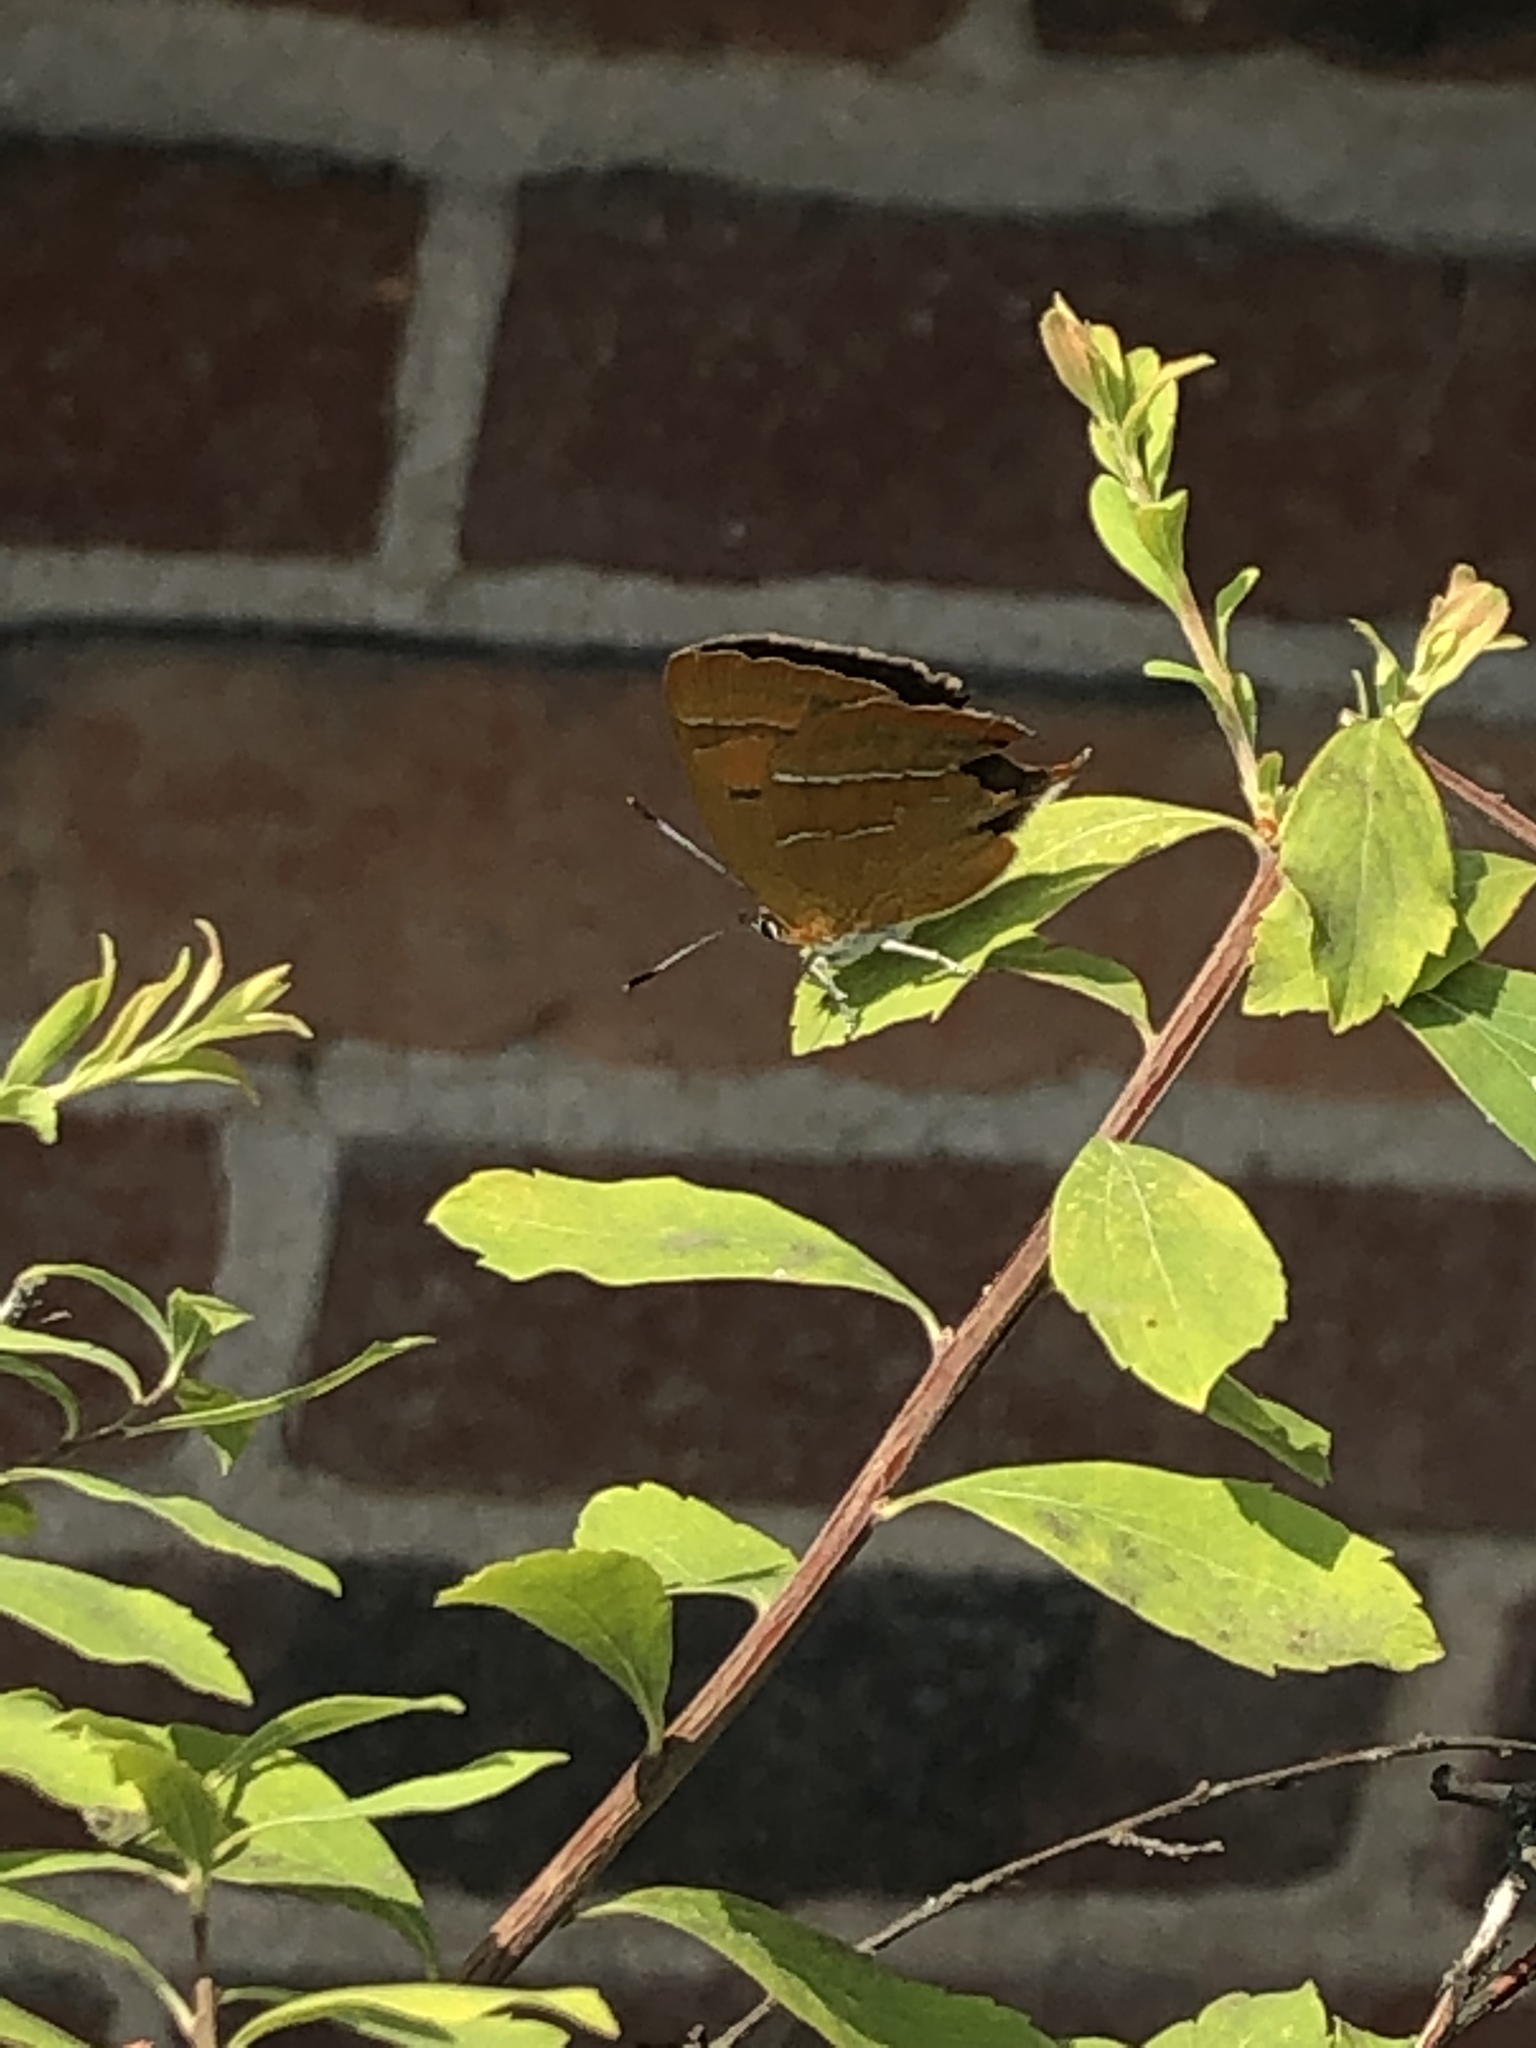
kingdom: Animalia
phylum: Arthropoda
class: Insecta
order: Lepidoptera
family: Lycaenidae
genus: Thecla
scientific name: Thecla betulae
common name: Brown hairstreak
